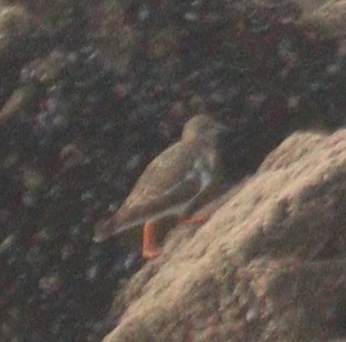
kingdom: Animalia
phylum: Chordata
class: Aves
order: Charadriiformes
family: Scolopacidae
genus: Arenaria
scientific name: Arenaria interpres
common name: Ruddy turnstone
